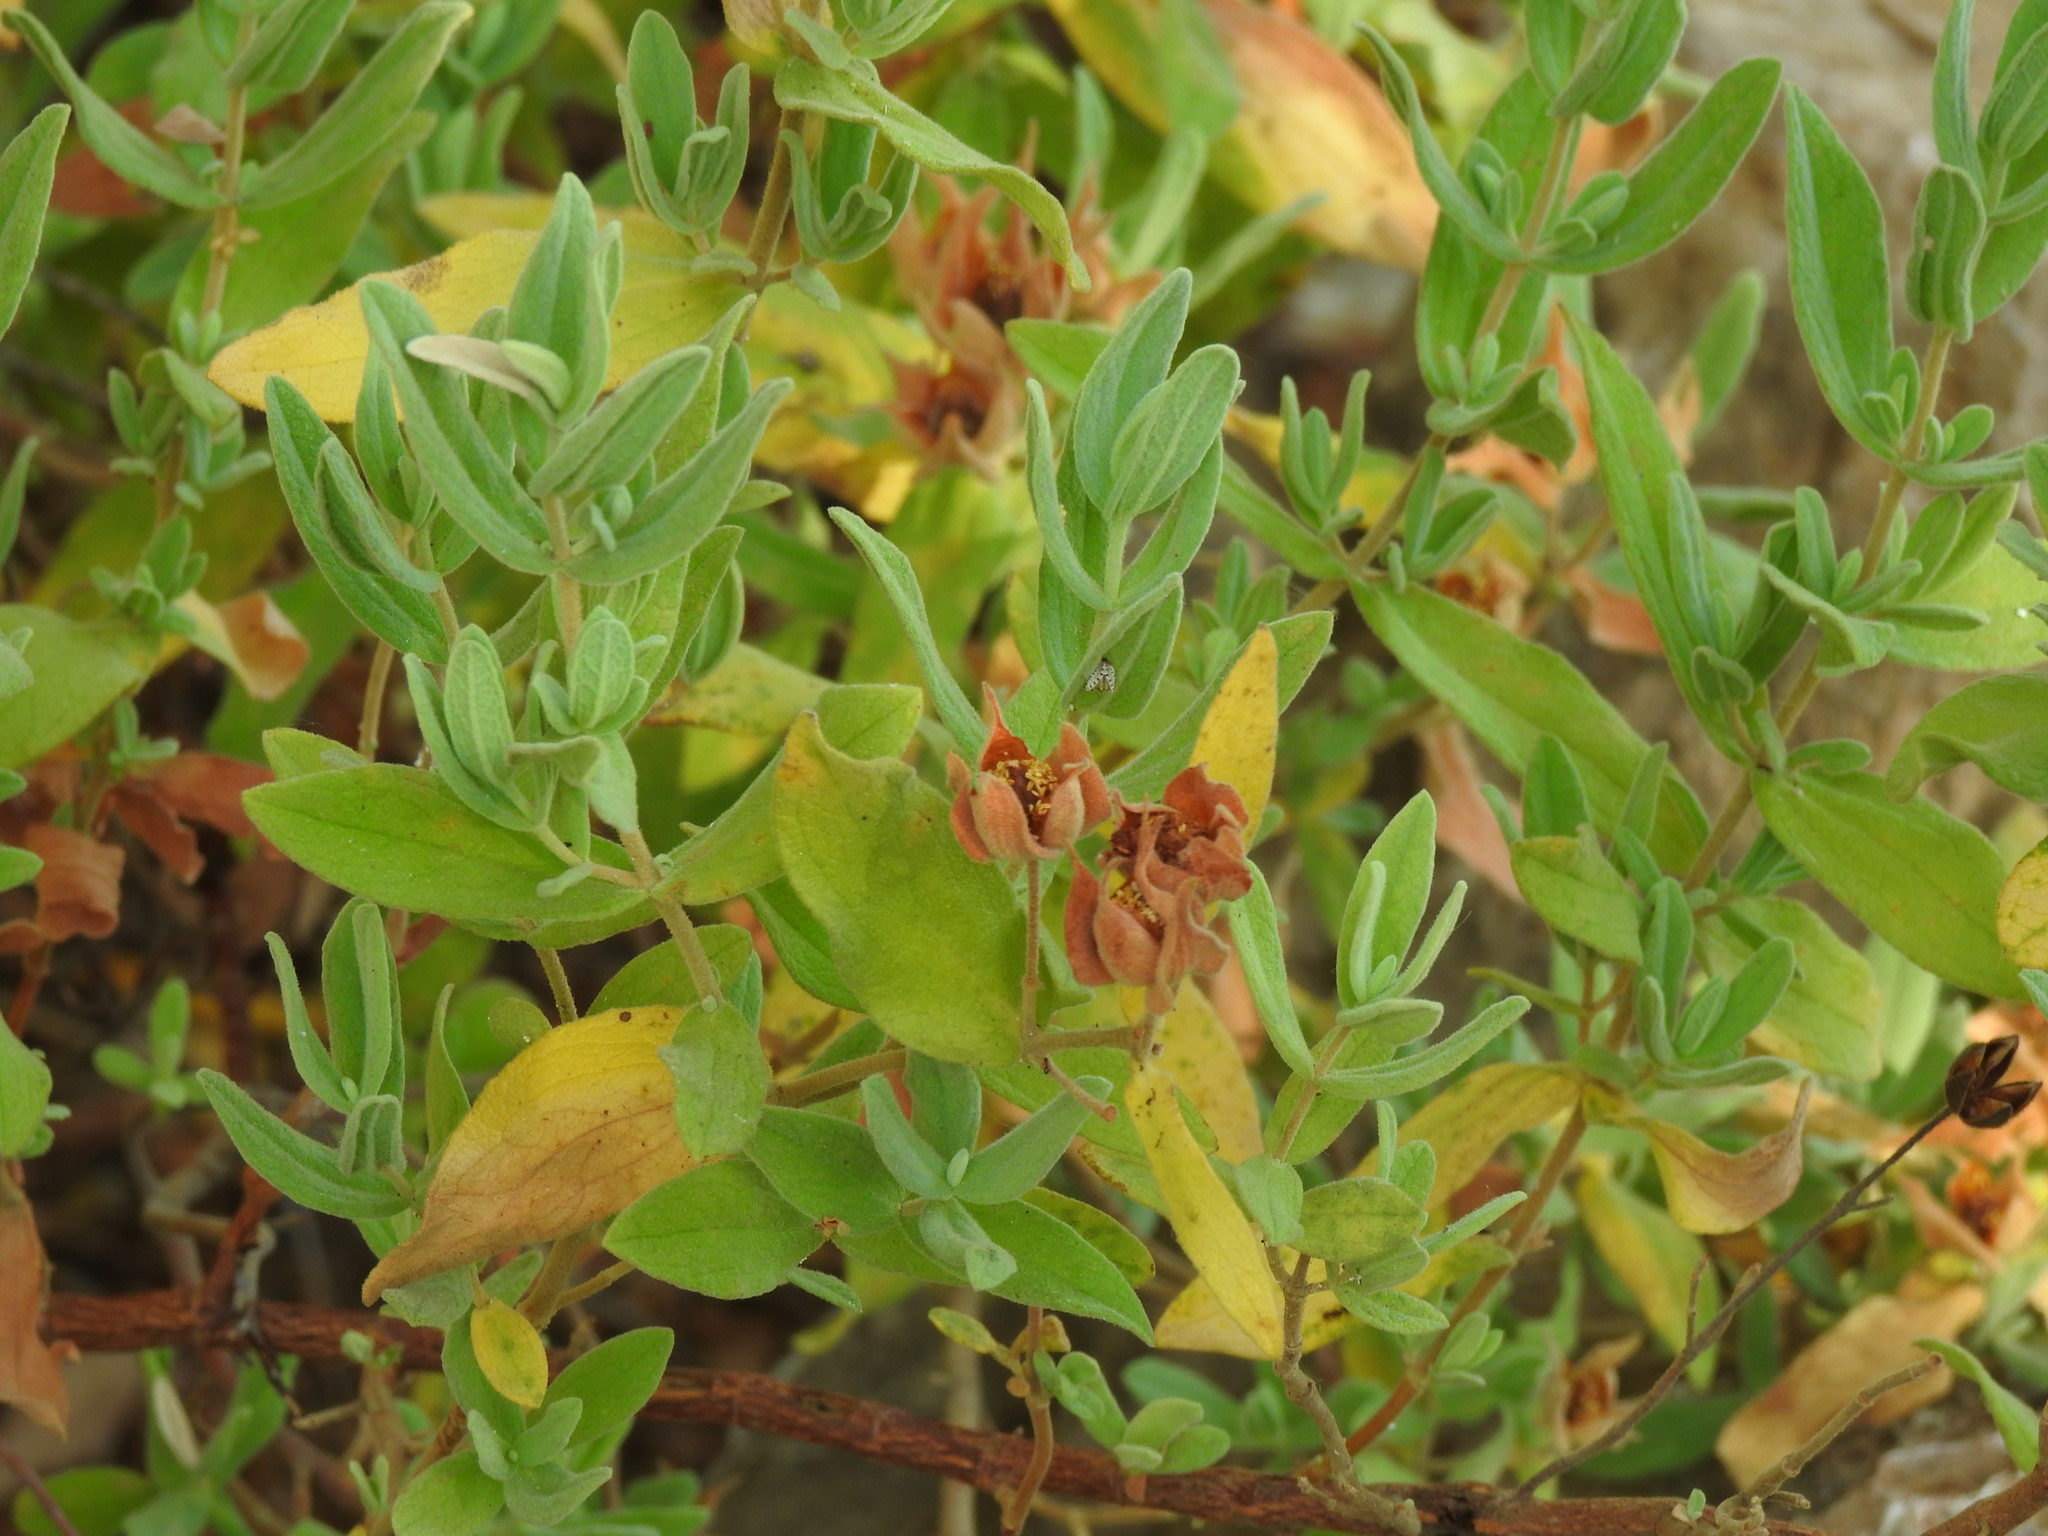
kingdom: Plantae
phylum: Tracheophyta
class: Magnoliopsida
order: Malvales
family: Cistaceae
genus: Cistus
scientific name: Cistus albidus
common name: White-leaf rock-rose
